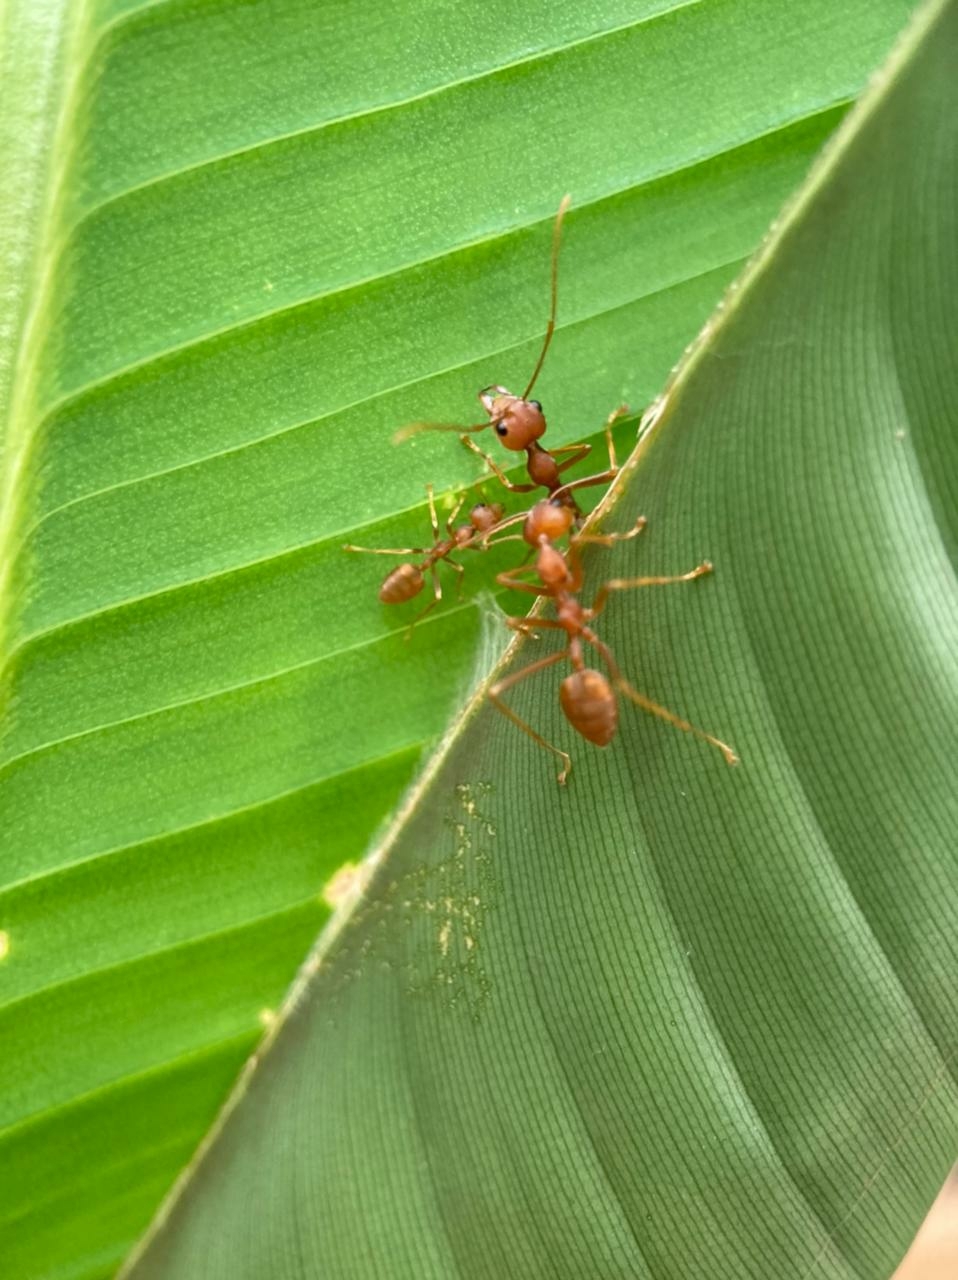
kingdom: Animalia
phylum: Arthropoda
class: Insecta
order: Hymenoptera
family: Formicidae
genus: Oecophylla
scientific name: Oecophylla smaragdina
